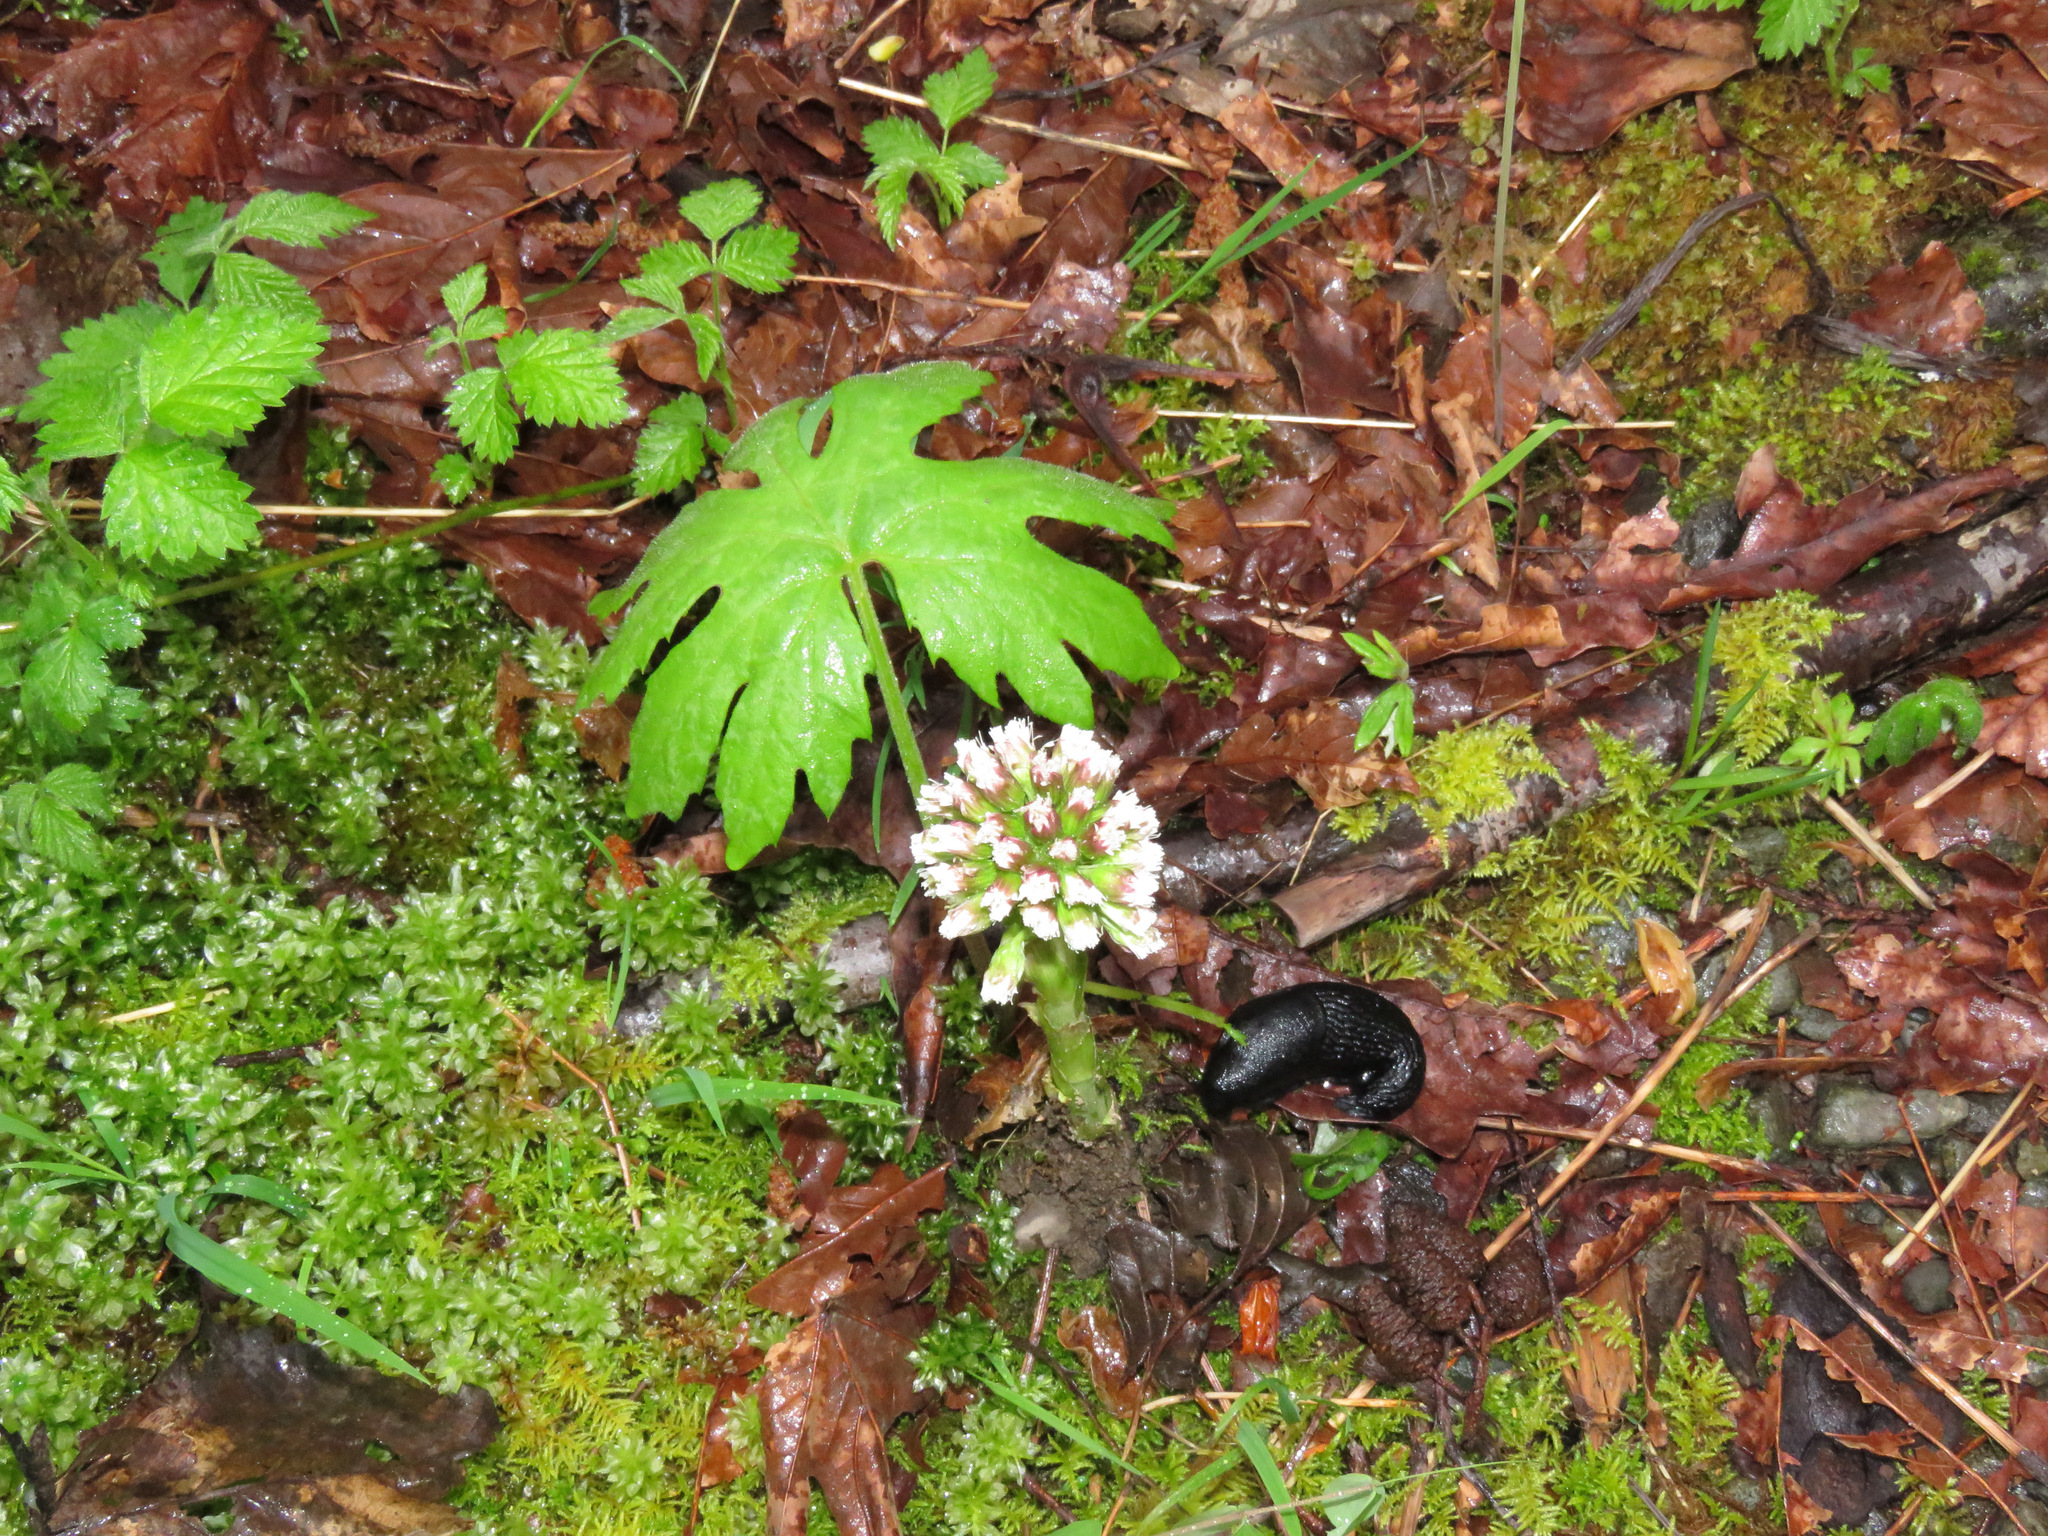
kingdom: Plantae
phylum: Tracheophyta
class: Magnoliopsida
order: Asterales
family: Asteraceae
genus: Petasites
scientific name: Petasites frigidus
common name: Arctic butterbur
